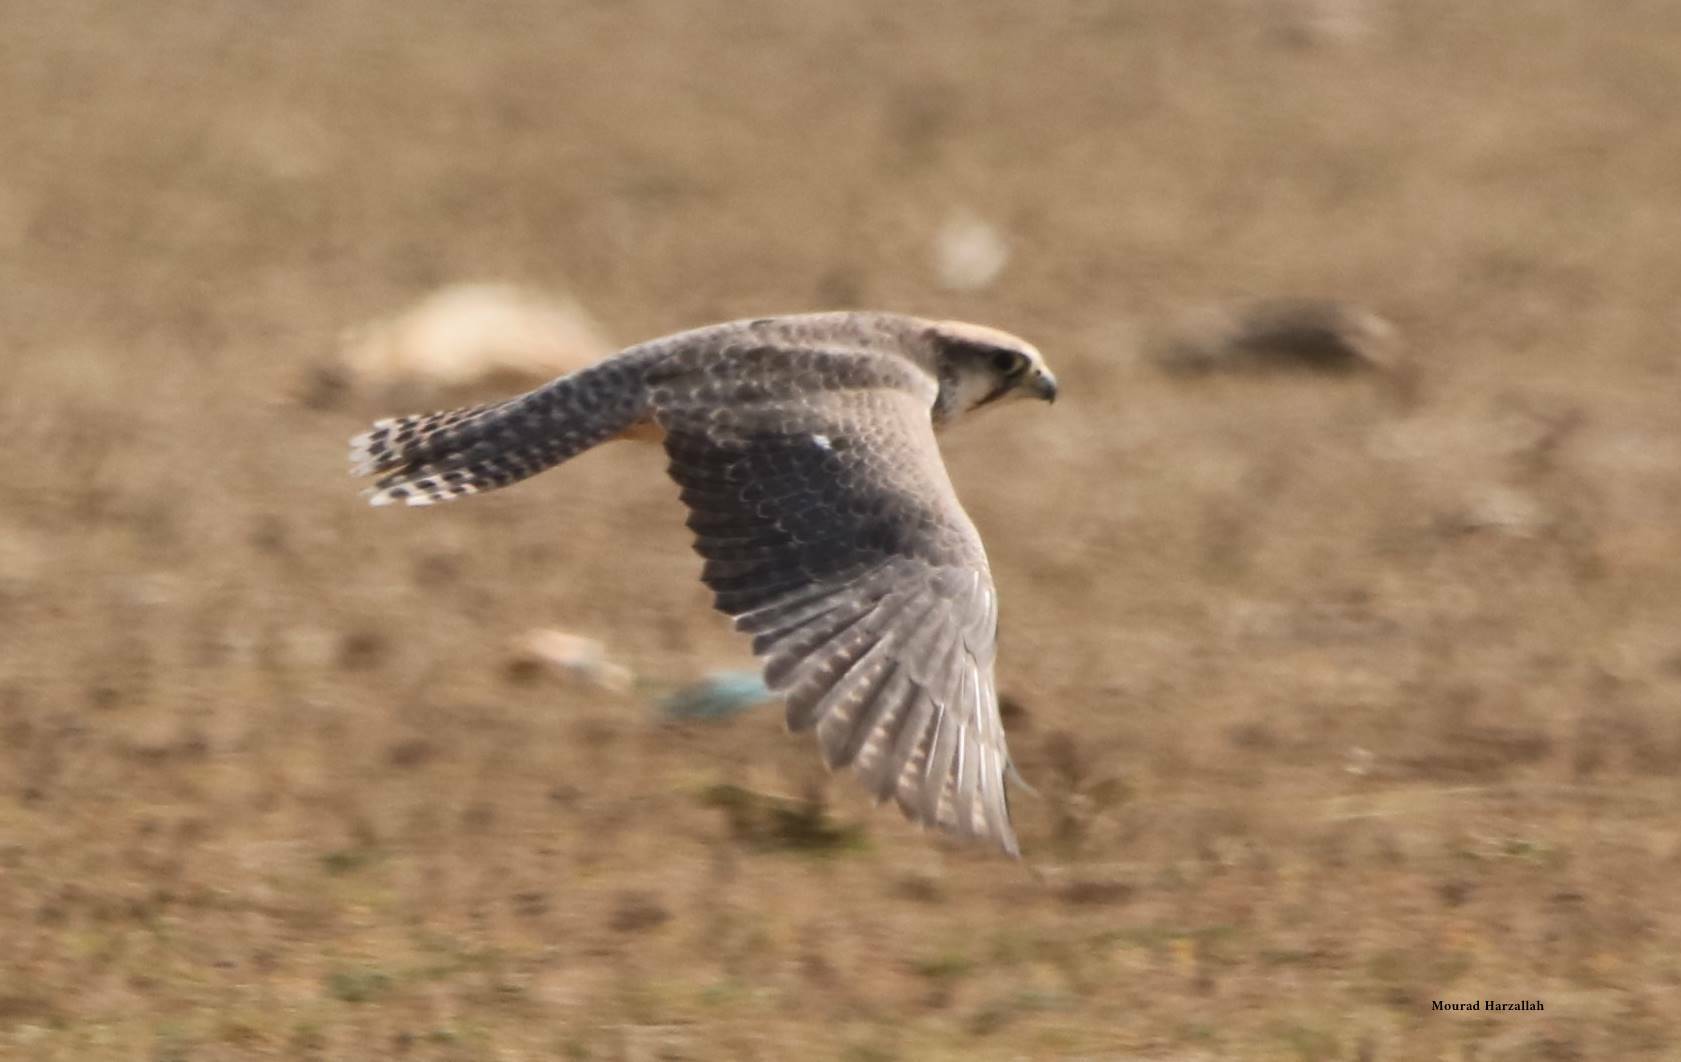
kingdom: Animalia
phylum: Chordata
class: Aves
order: Falconiformes
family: Falconidae
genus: Falco
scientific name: Falco biarmicus
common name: Lanner falcon
